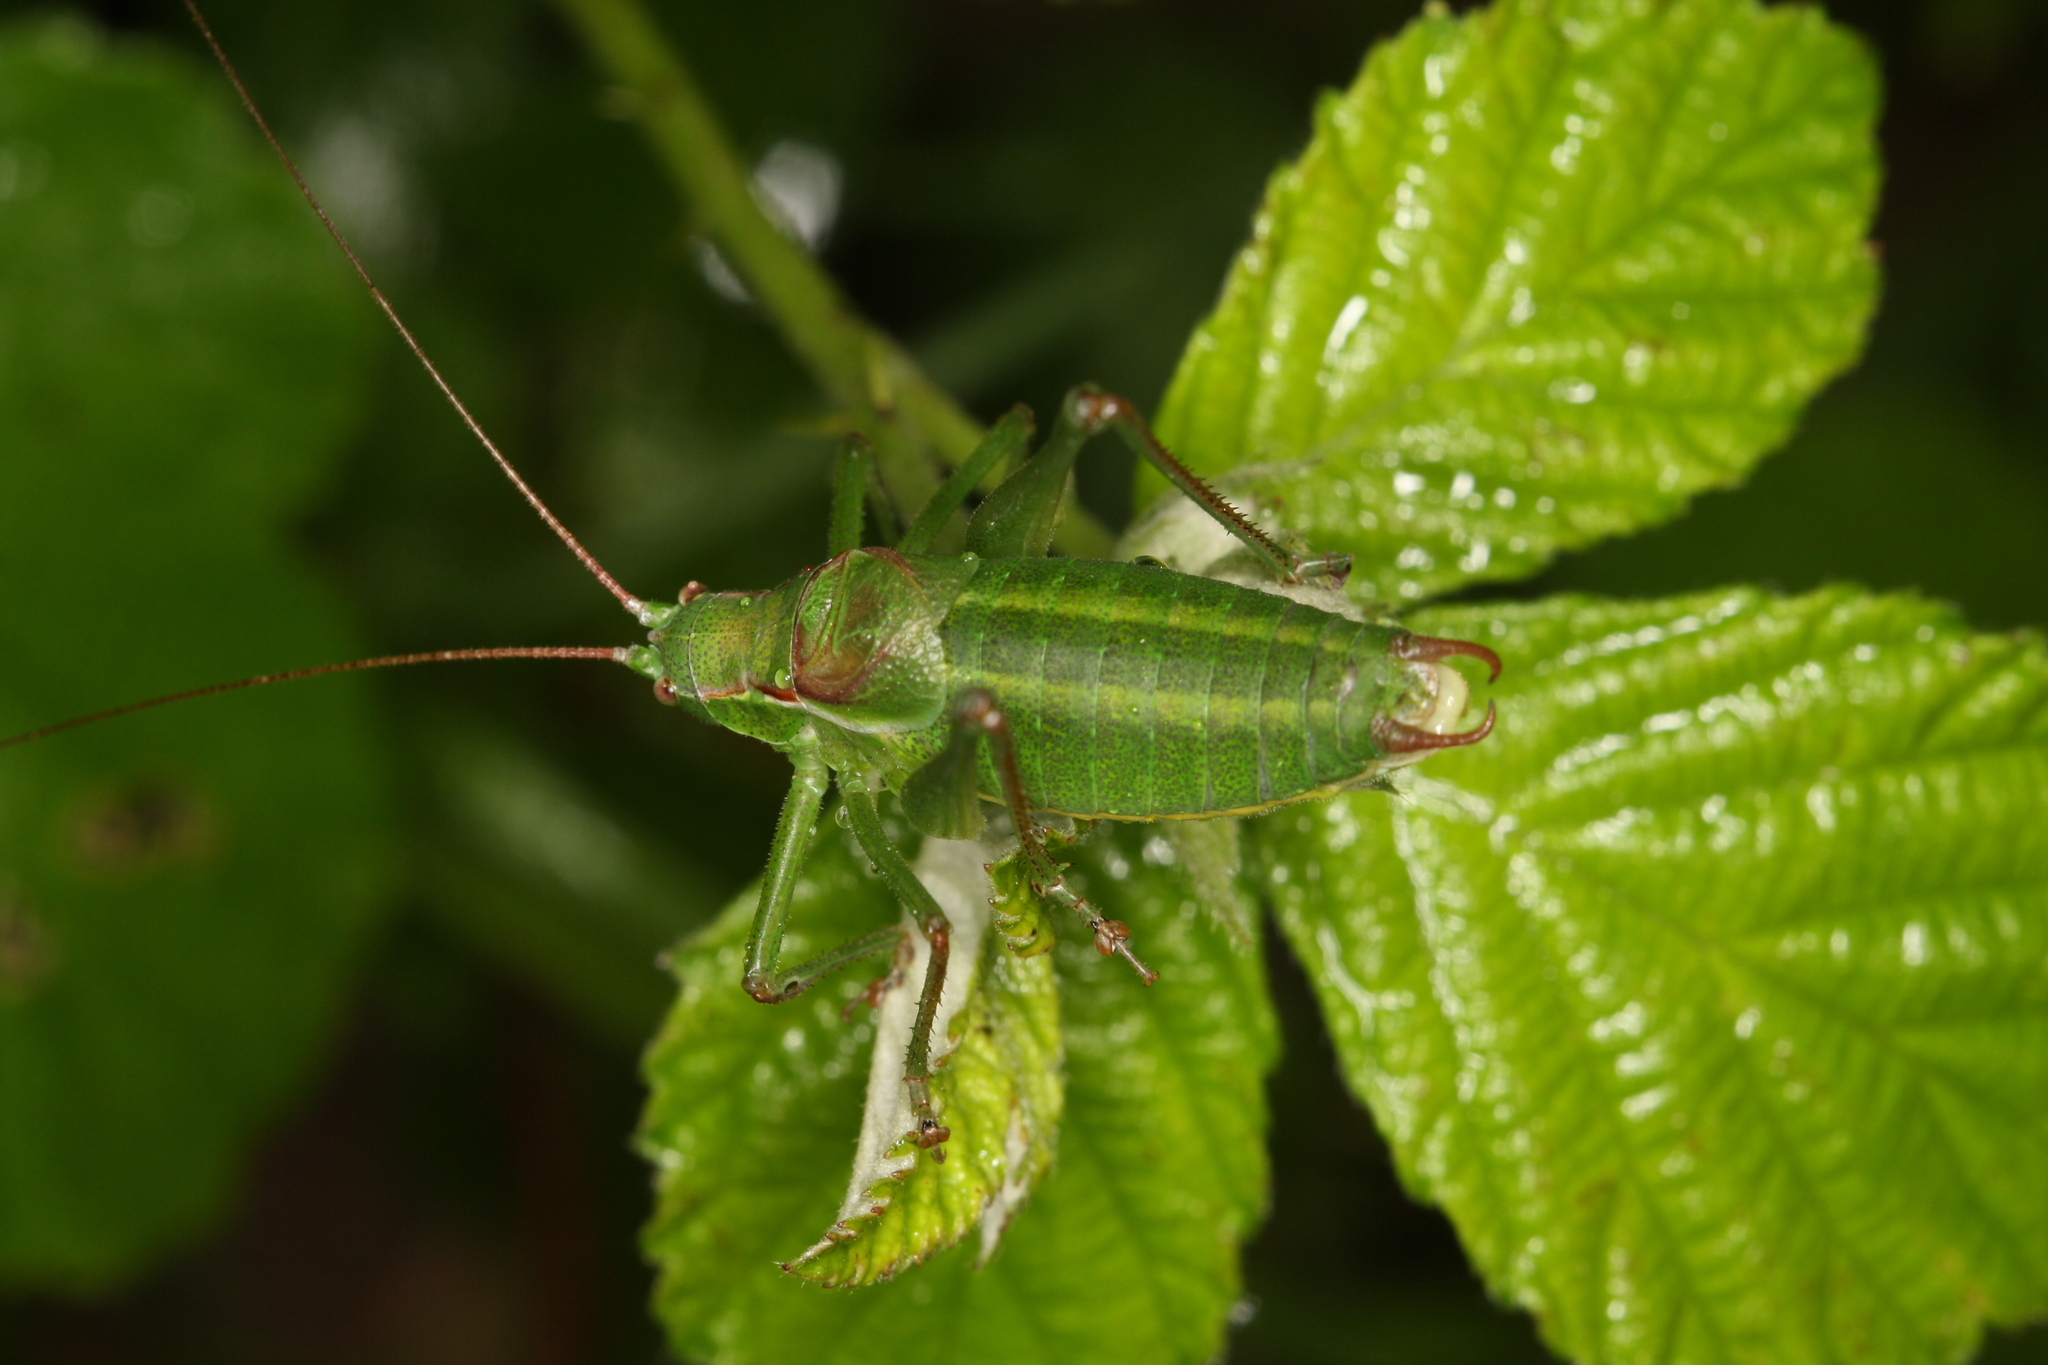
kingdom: Animalia
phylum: Arthropoda
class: Insecta
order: Orthoptera
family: Tettigoniidae
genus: Isophya
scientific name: Isophya speciosa
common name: Showy plump bush-cricket
